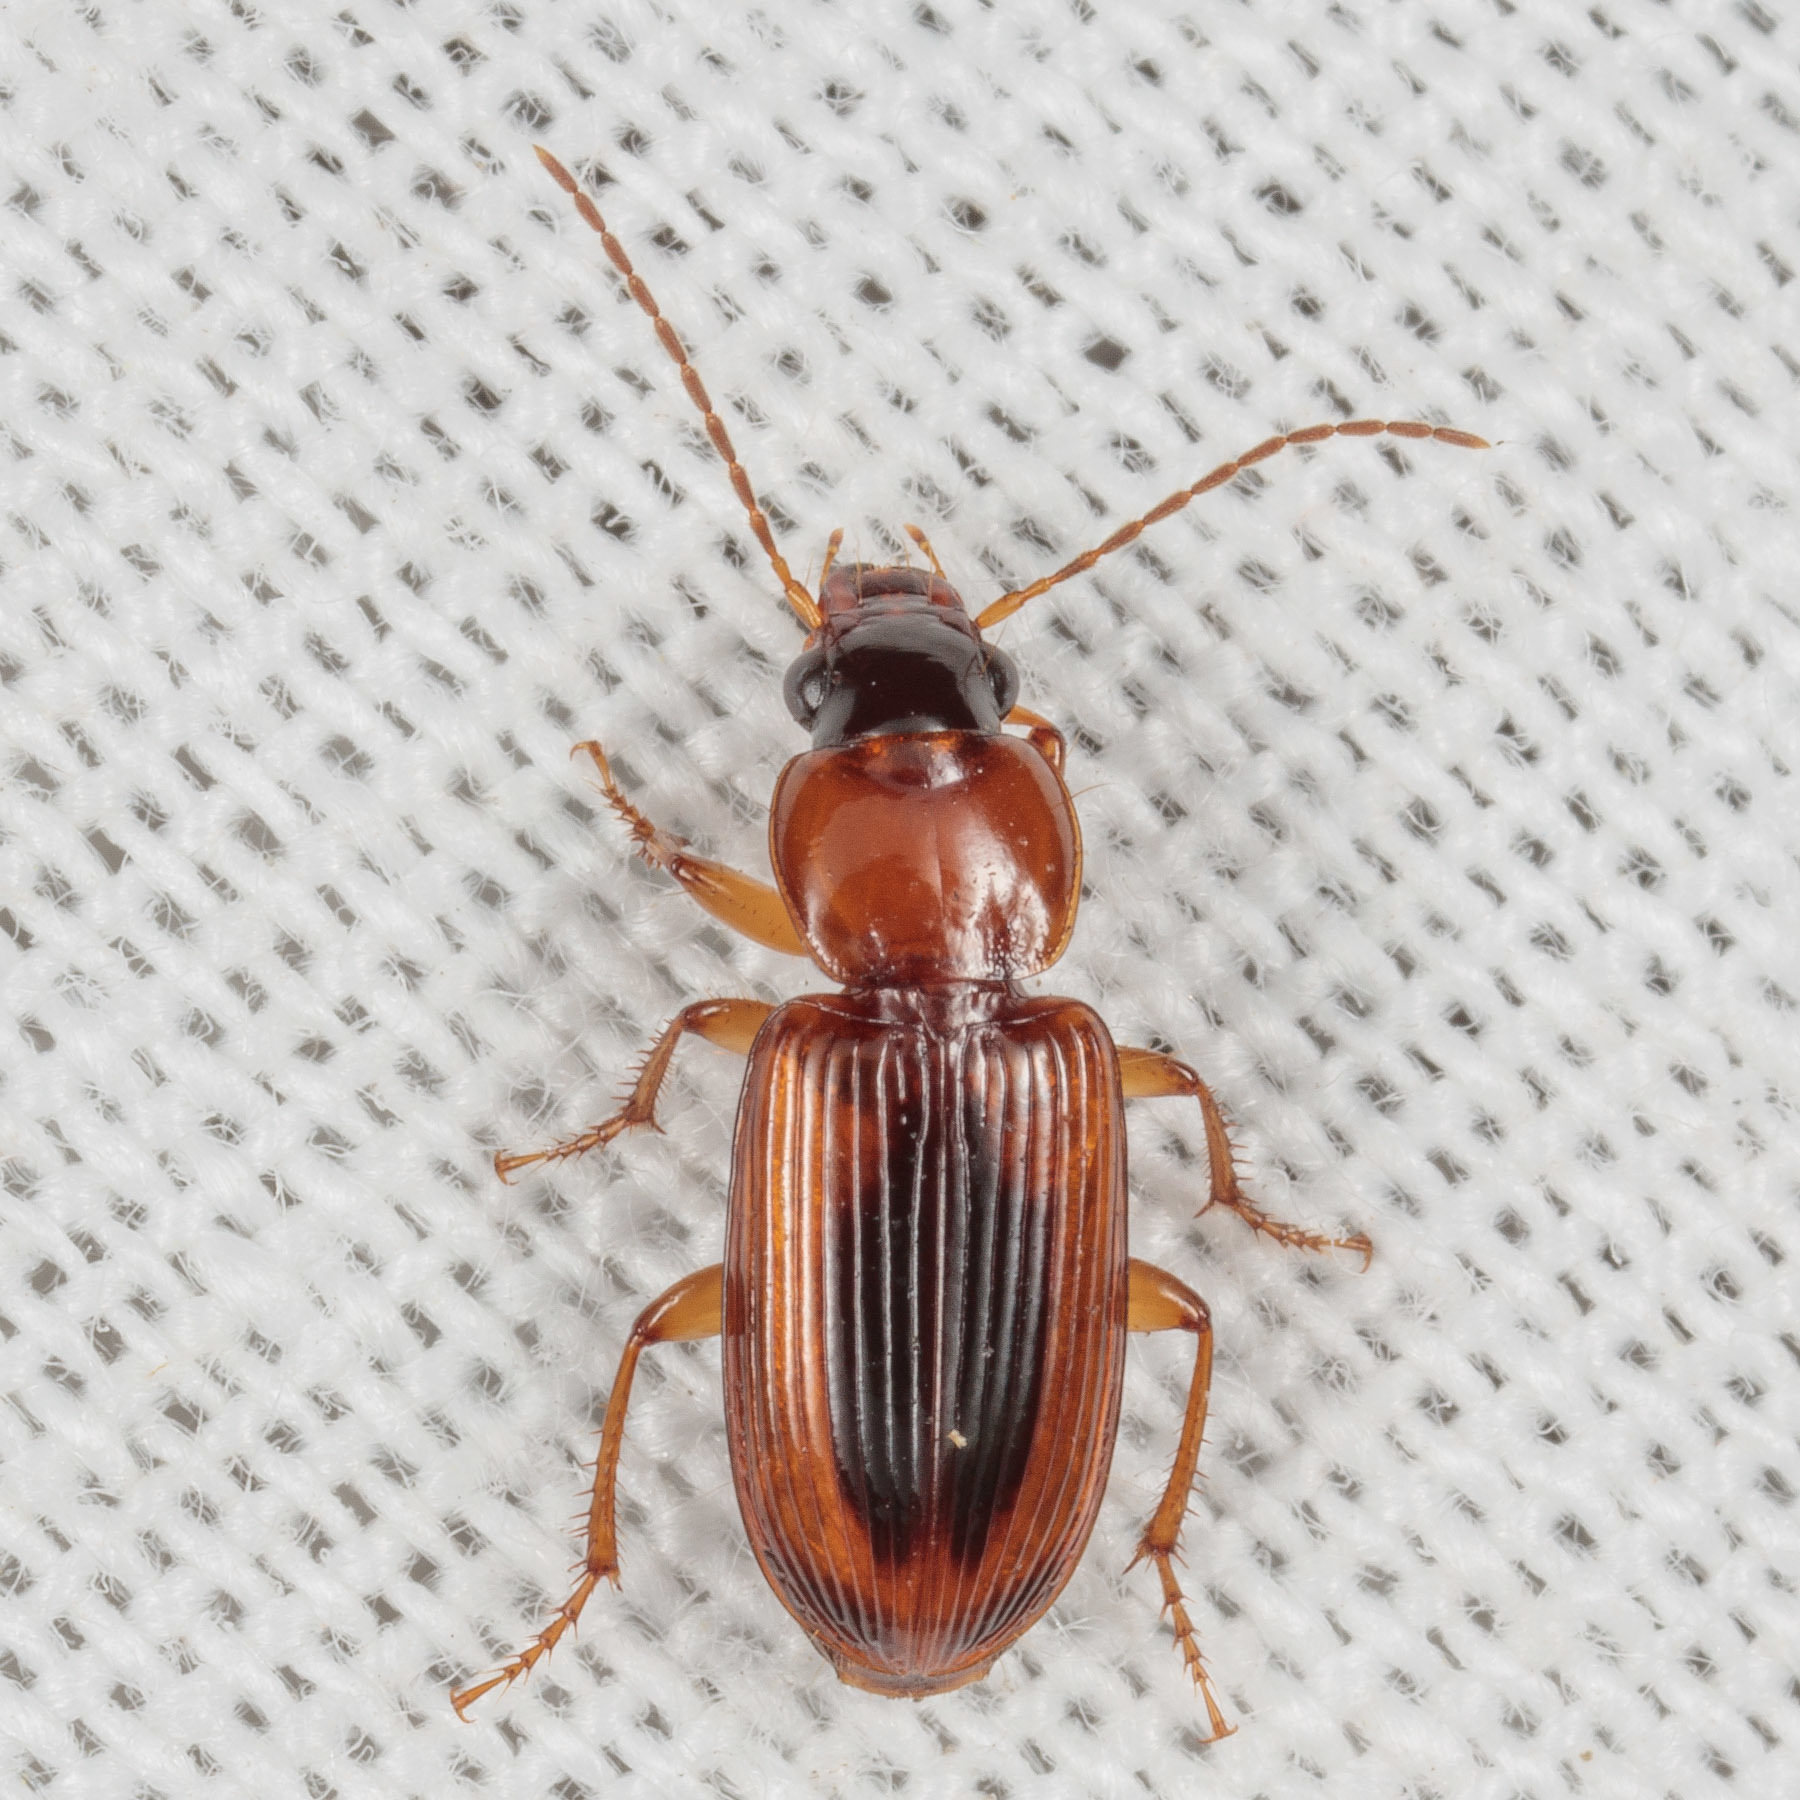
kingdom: Animalia
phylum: Arthropoda
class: Insecta
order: Coleoptera
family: Carabidae
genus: Stenolophus
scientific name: Stenolophus dissimilis
